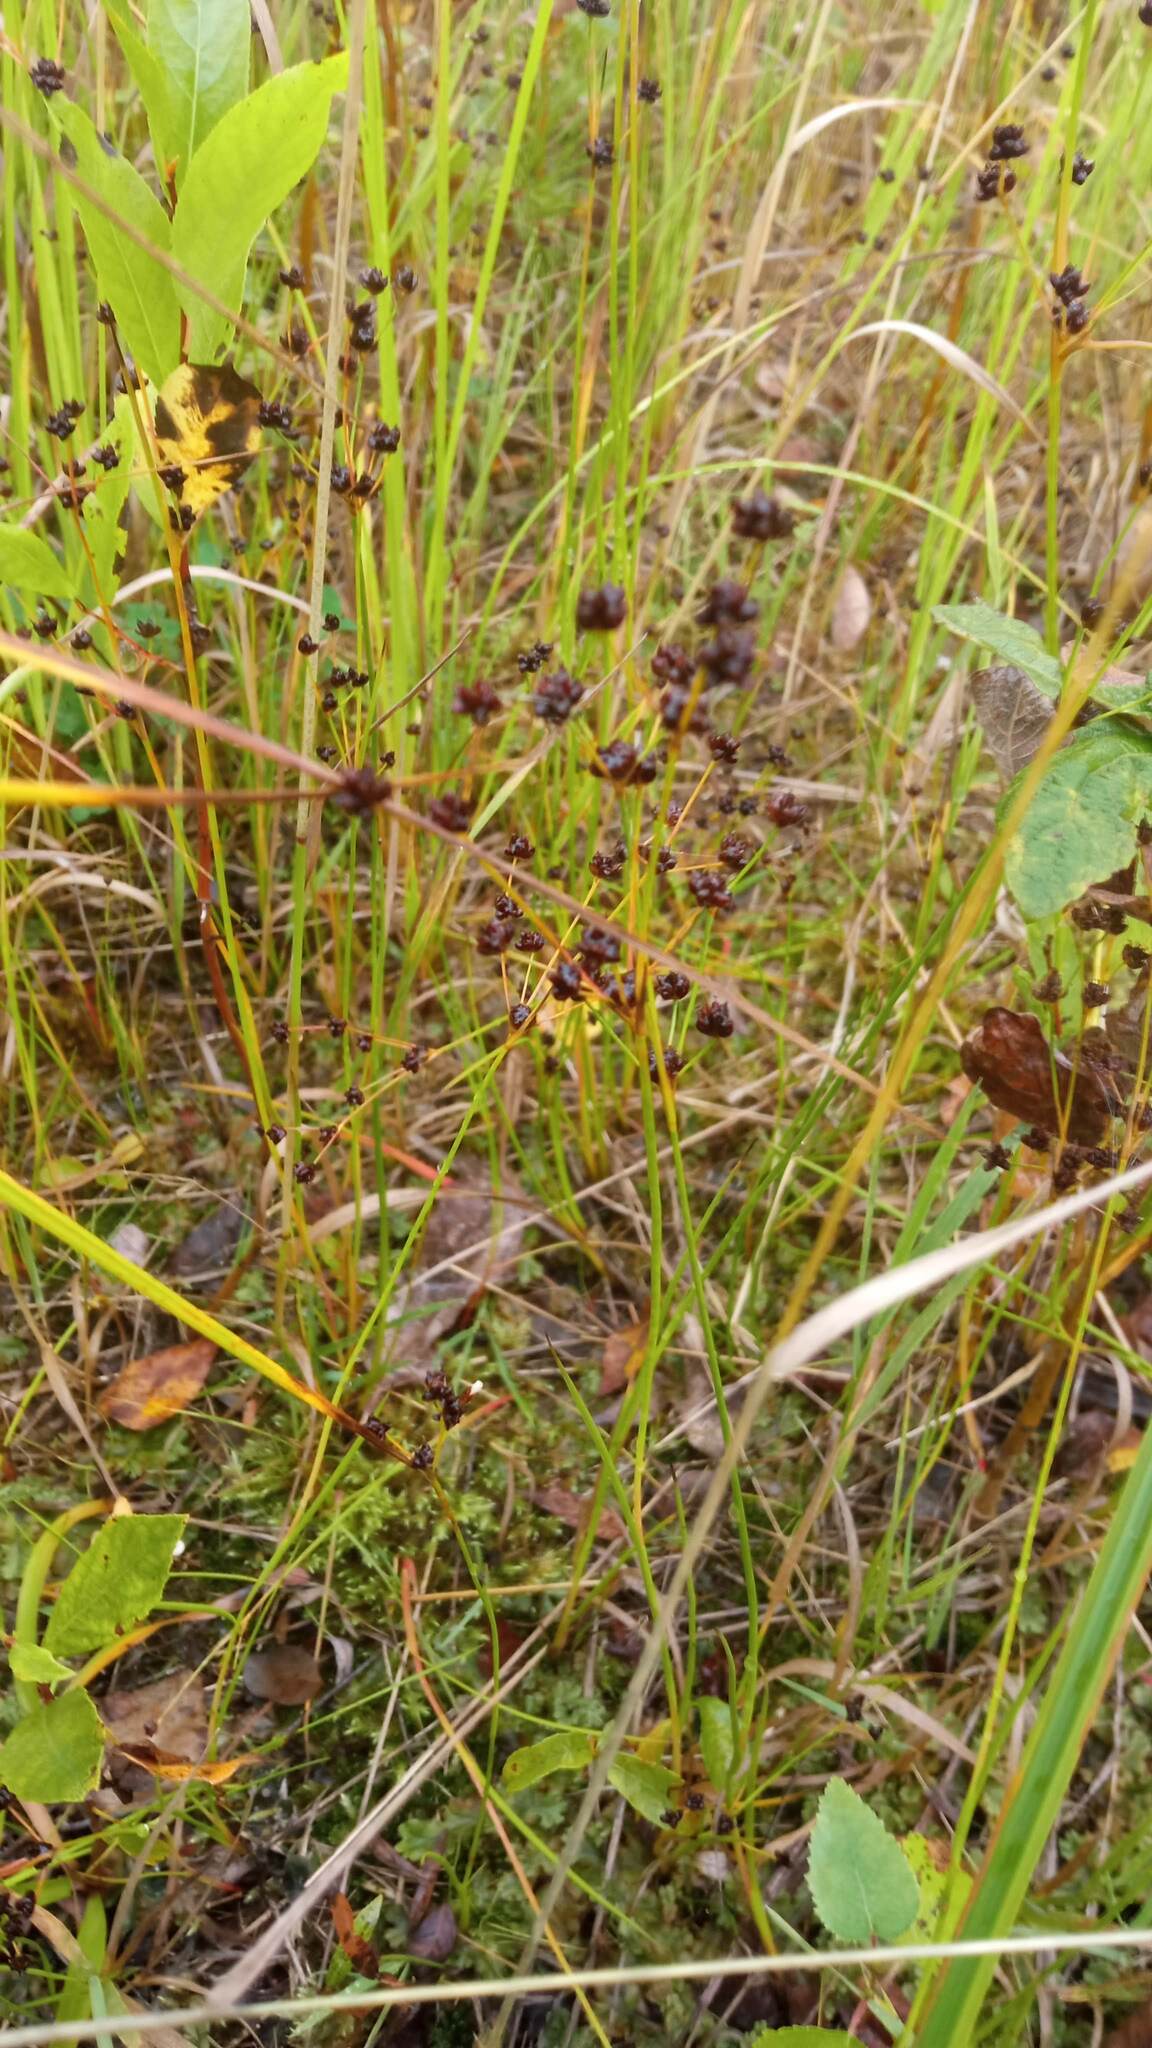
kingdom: Plantae
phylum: Tracheophyta
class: Liliopsida
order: Poales
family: Juncaceae
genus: Juncus
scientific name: Juncus alpinoarticulatus
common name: Alpine rush
